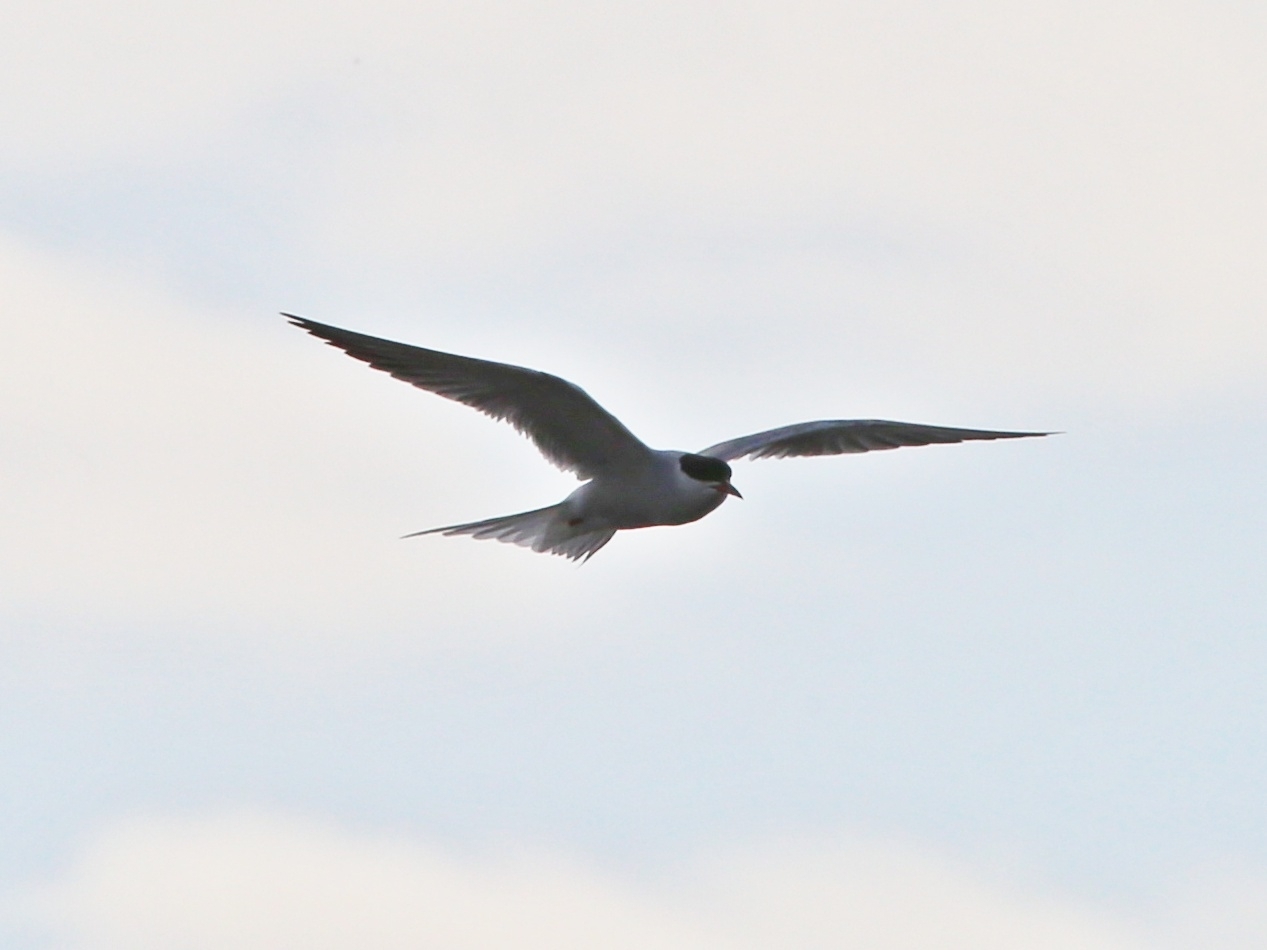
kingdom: Animalia
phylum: Chordata
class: Aves
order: Charadriiformes
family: Laridae
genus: Sterna
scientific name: Sterna hirundo
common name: Common tern
